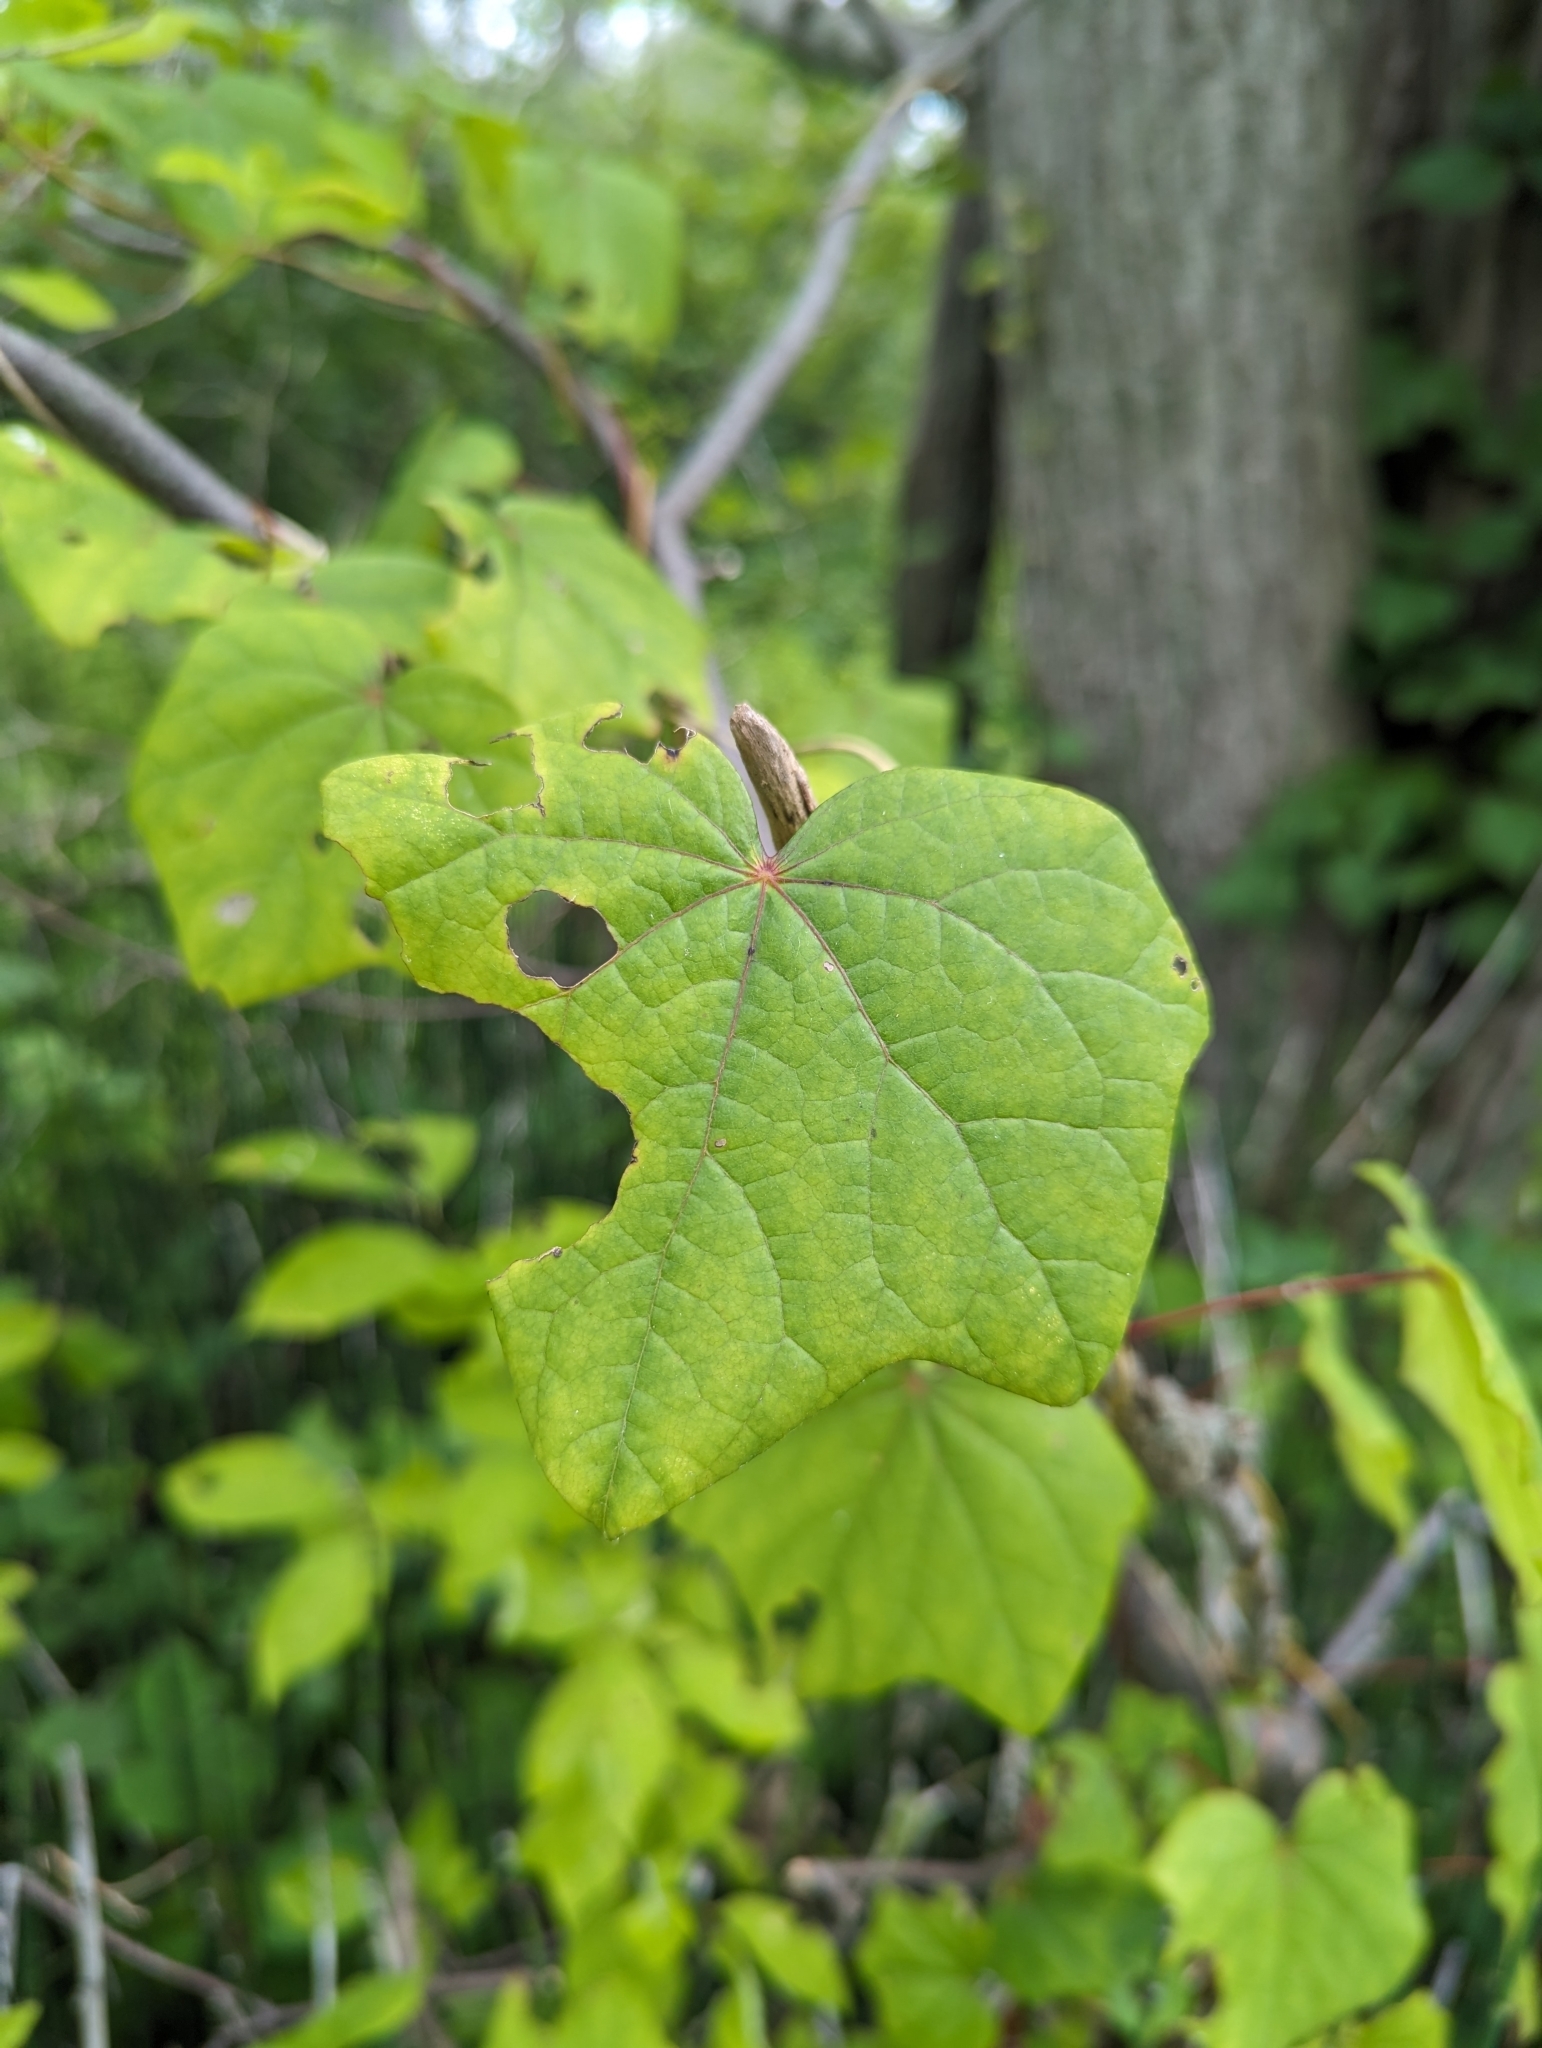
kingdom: Plantae
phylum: Tracheophyta
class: Magnoliopsida
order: Ranunculales
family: Menispermaceae
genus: Menispermum
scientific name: Menispermum canadense
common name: Moonseed
